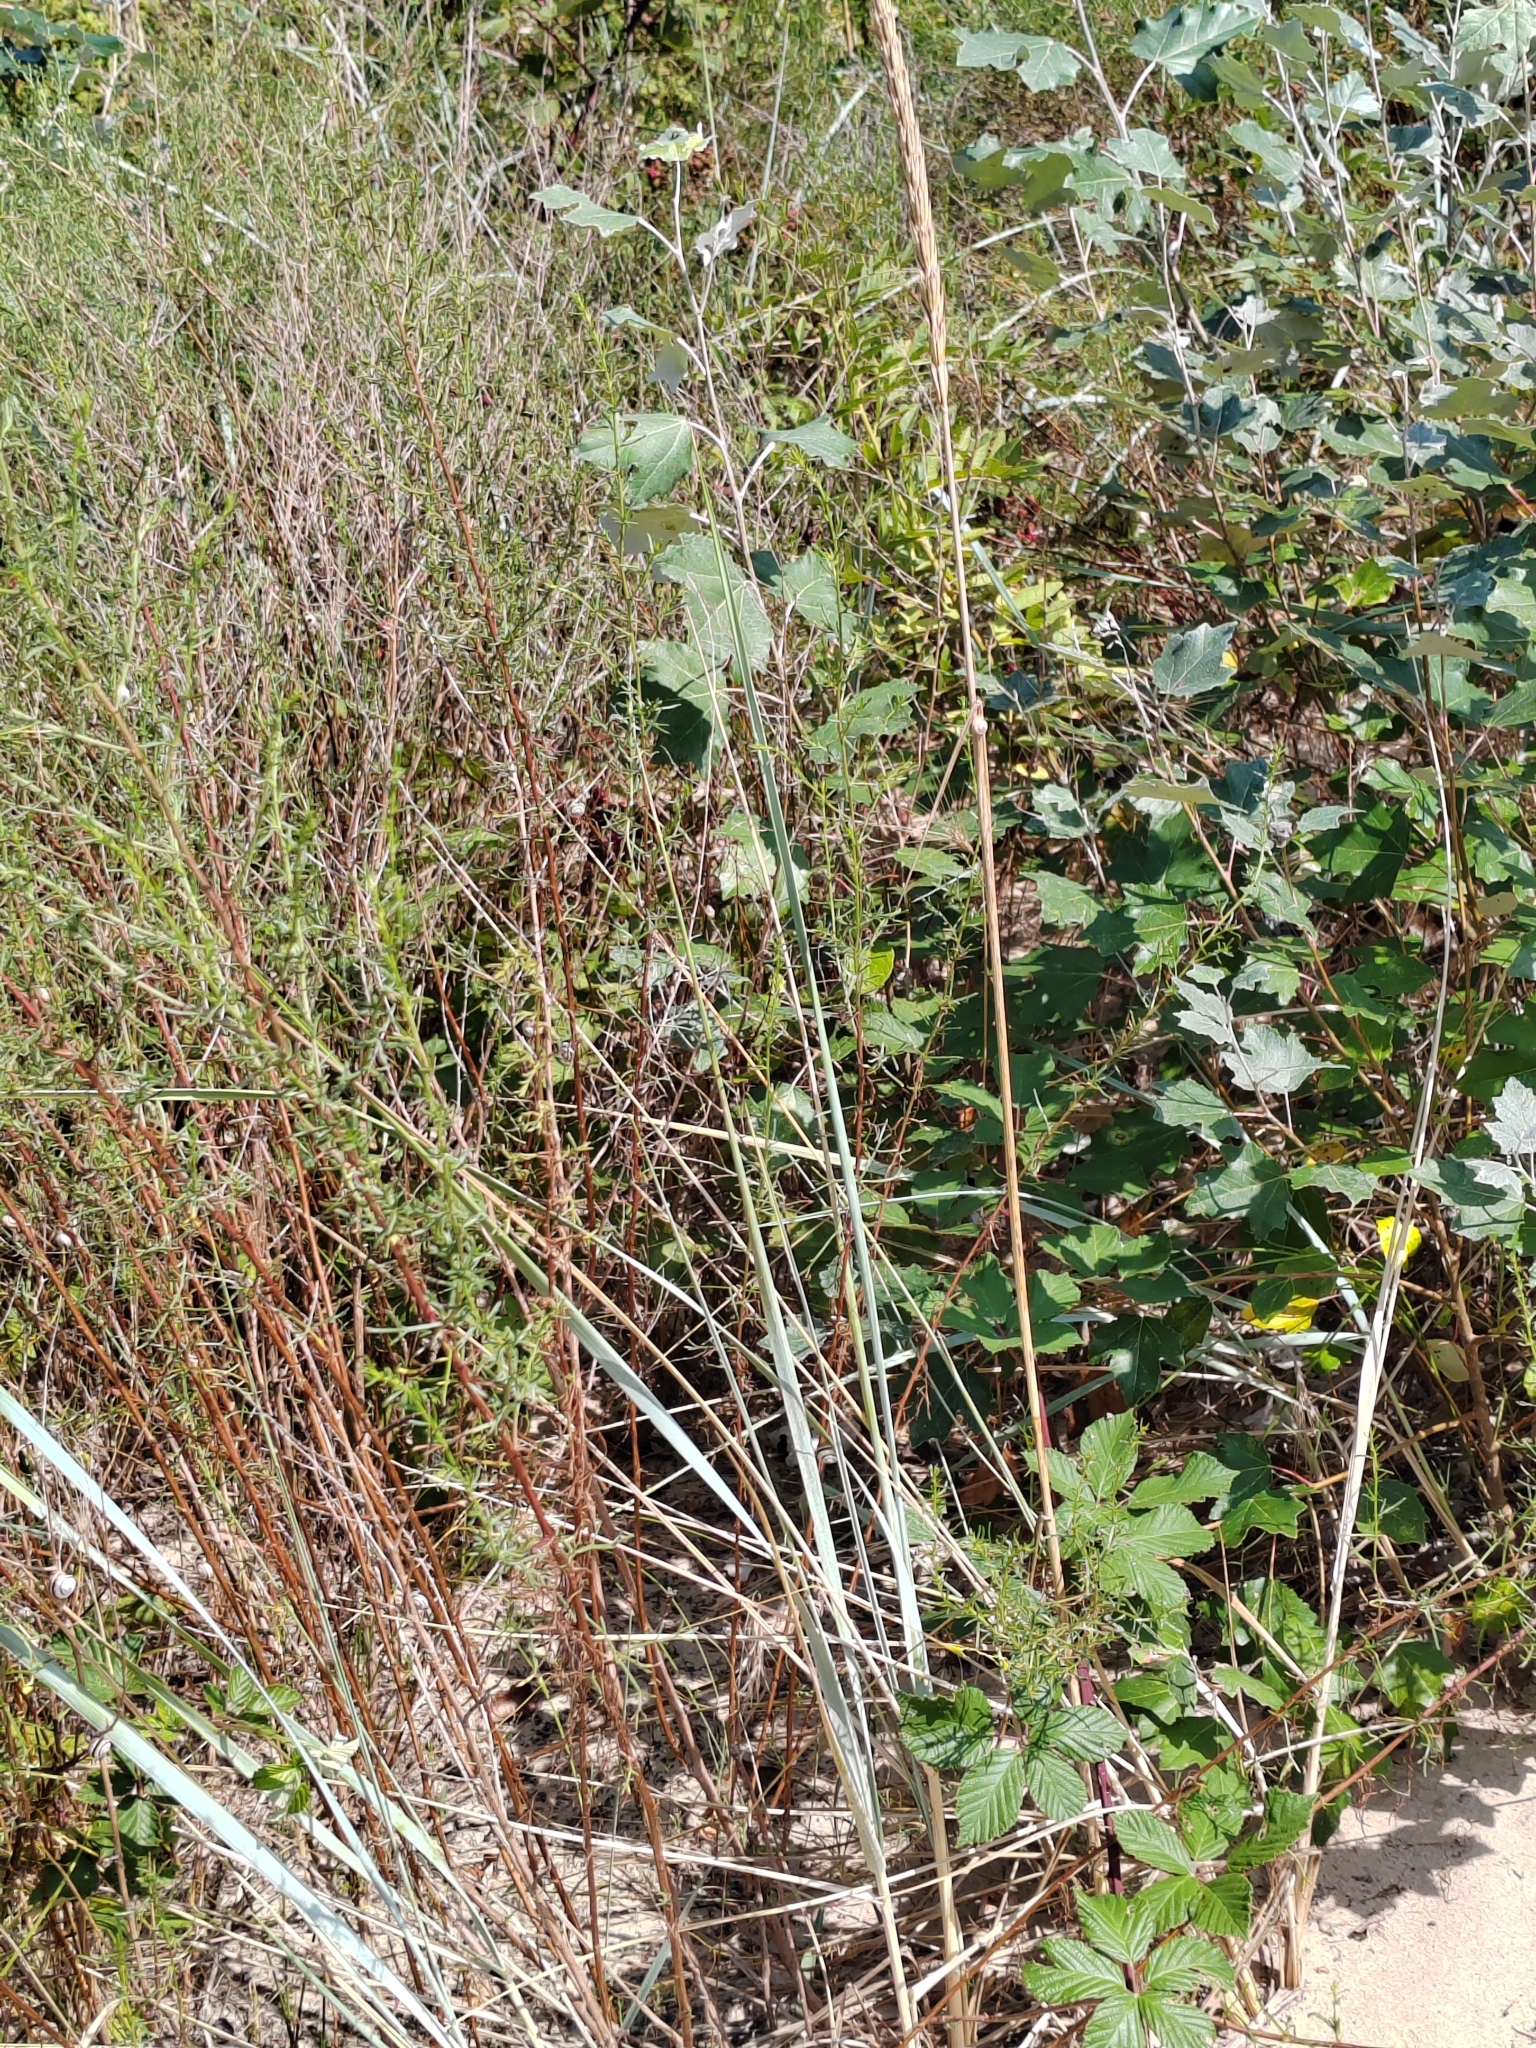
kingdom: Plantae
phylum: Tracheophyta
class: Liliopsida
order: Poales
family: Poaceae
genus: Leymus
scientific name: Leymus racemosus
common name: Mammoth wildrye
